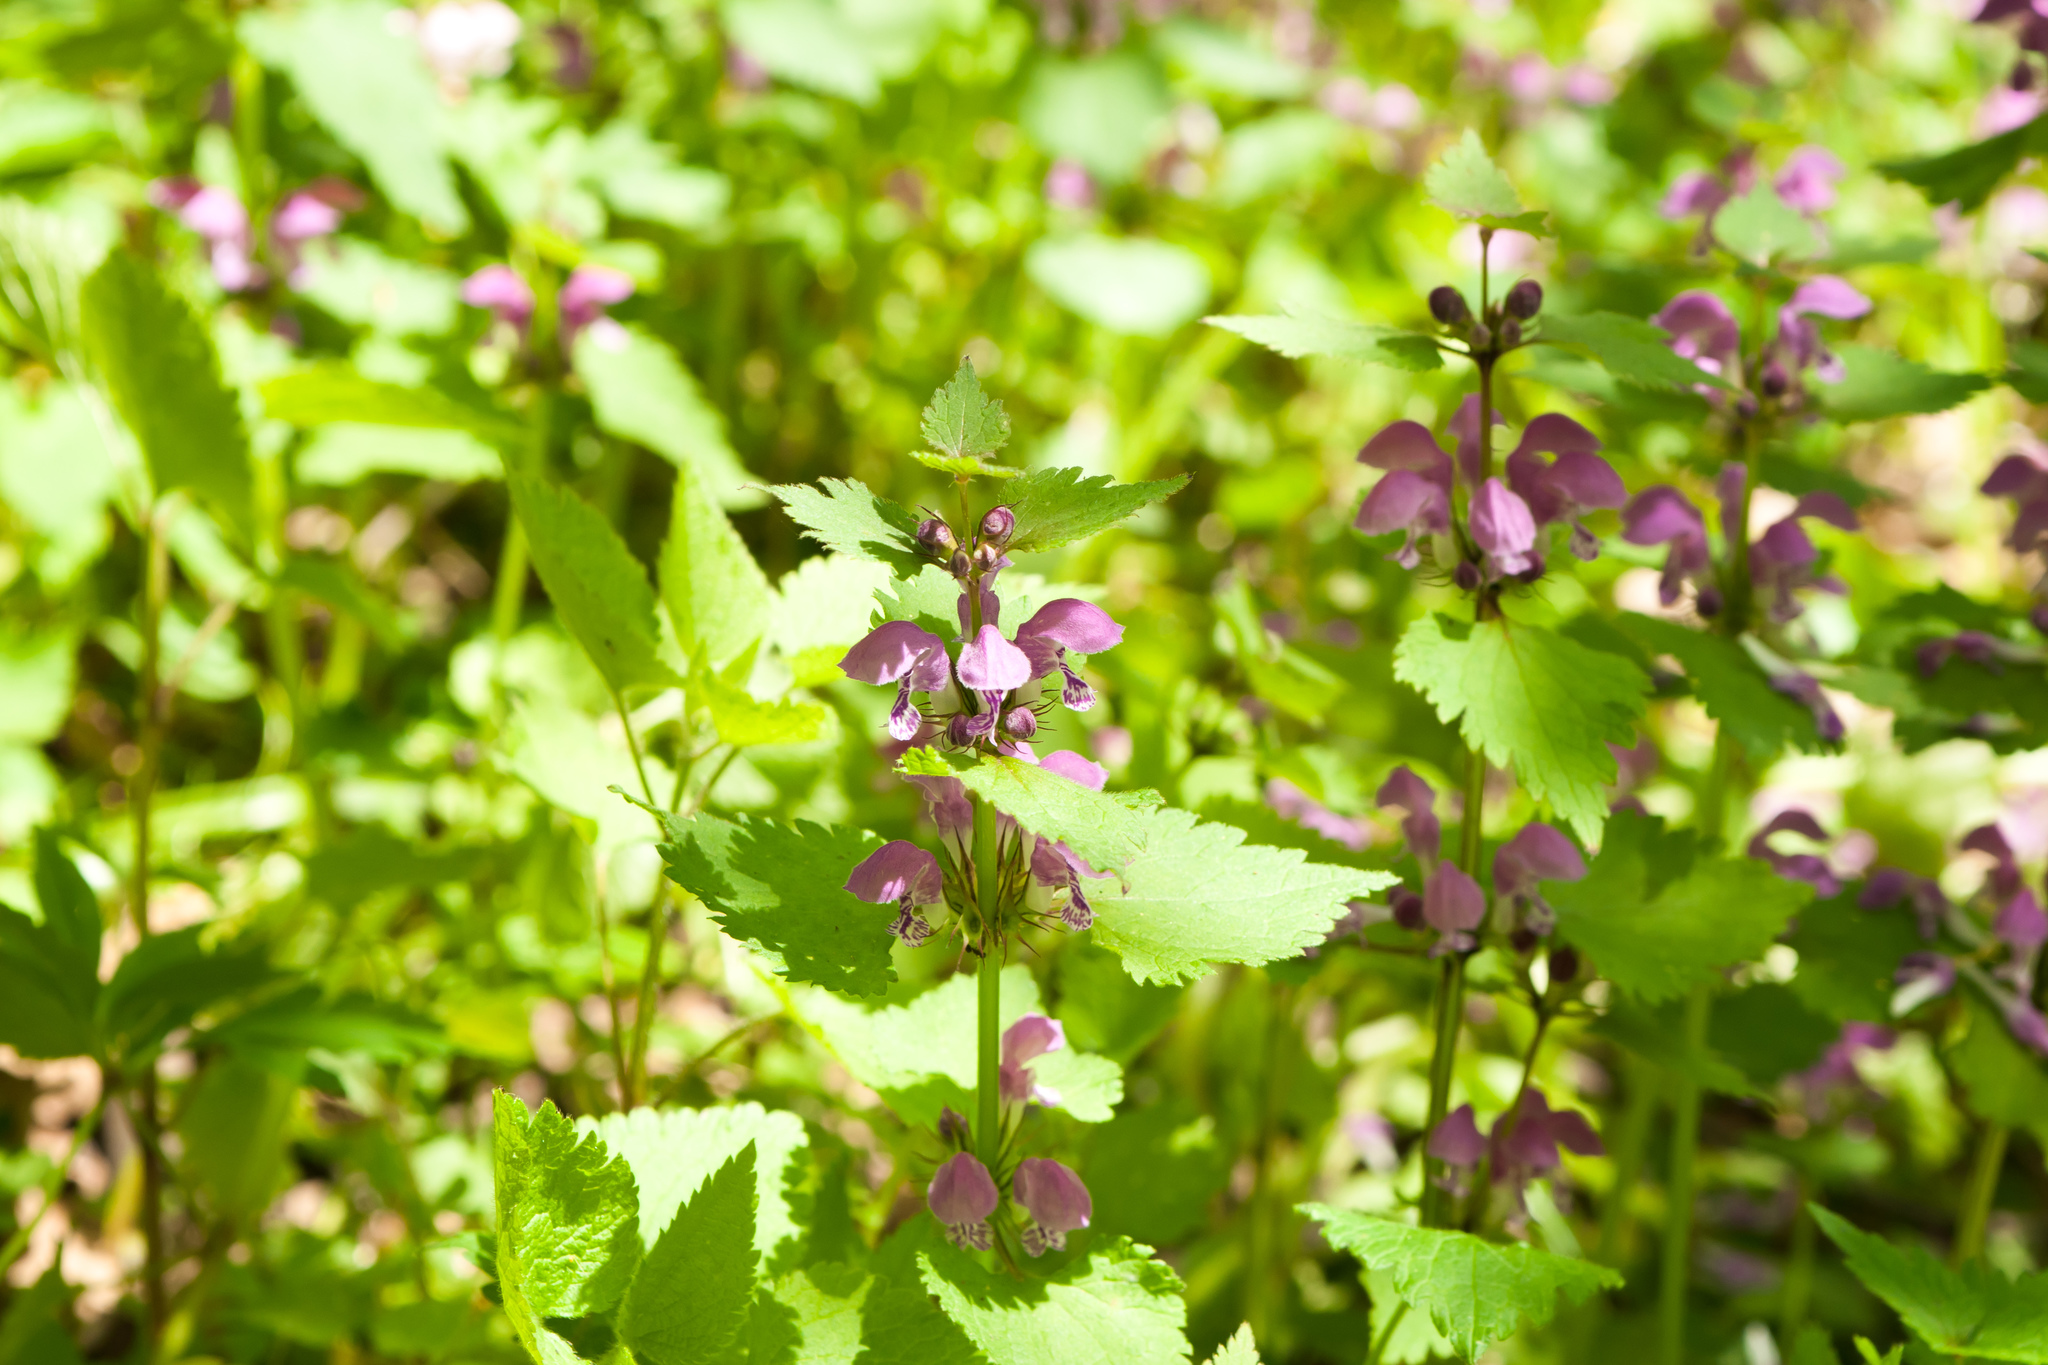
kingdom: Plantae
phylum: Tracheophyta
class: Magnoliopsida
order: Lamiales
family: Lamiaceae
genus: Lamium
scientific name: Lamium maculatum
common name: Spotted dead-nettle
